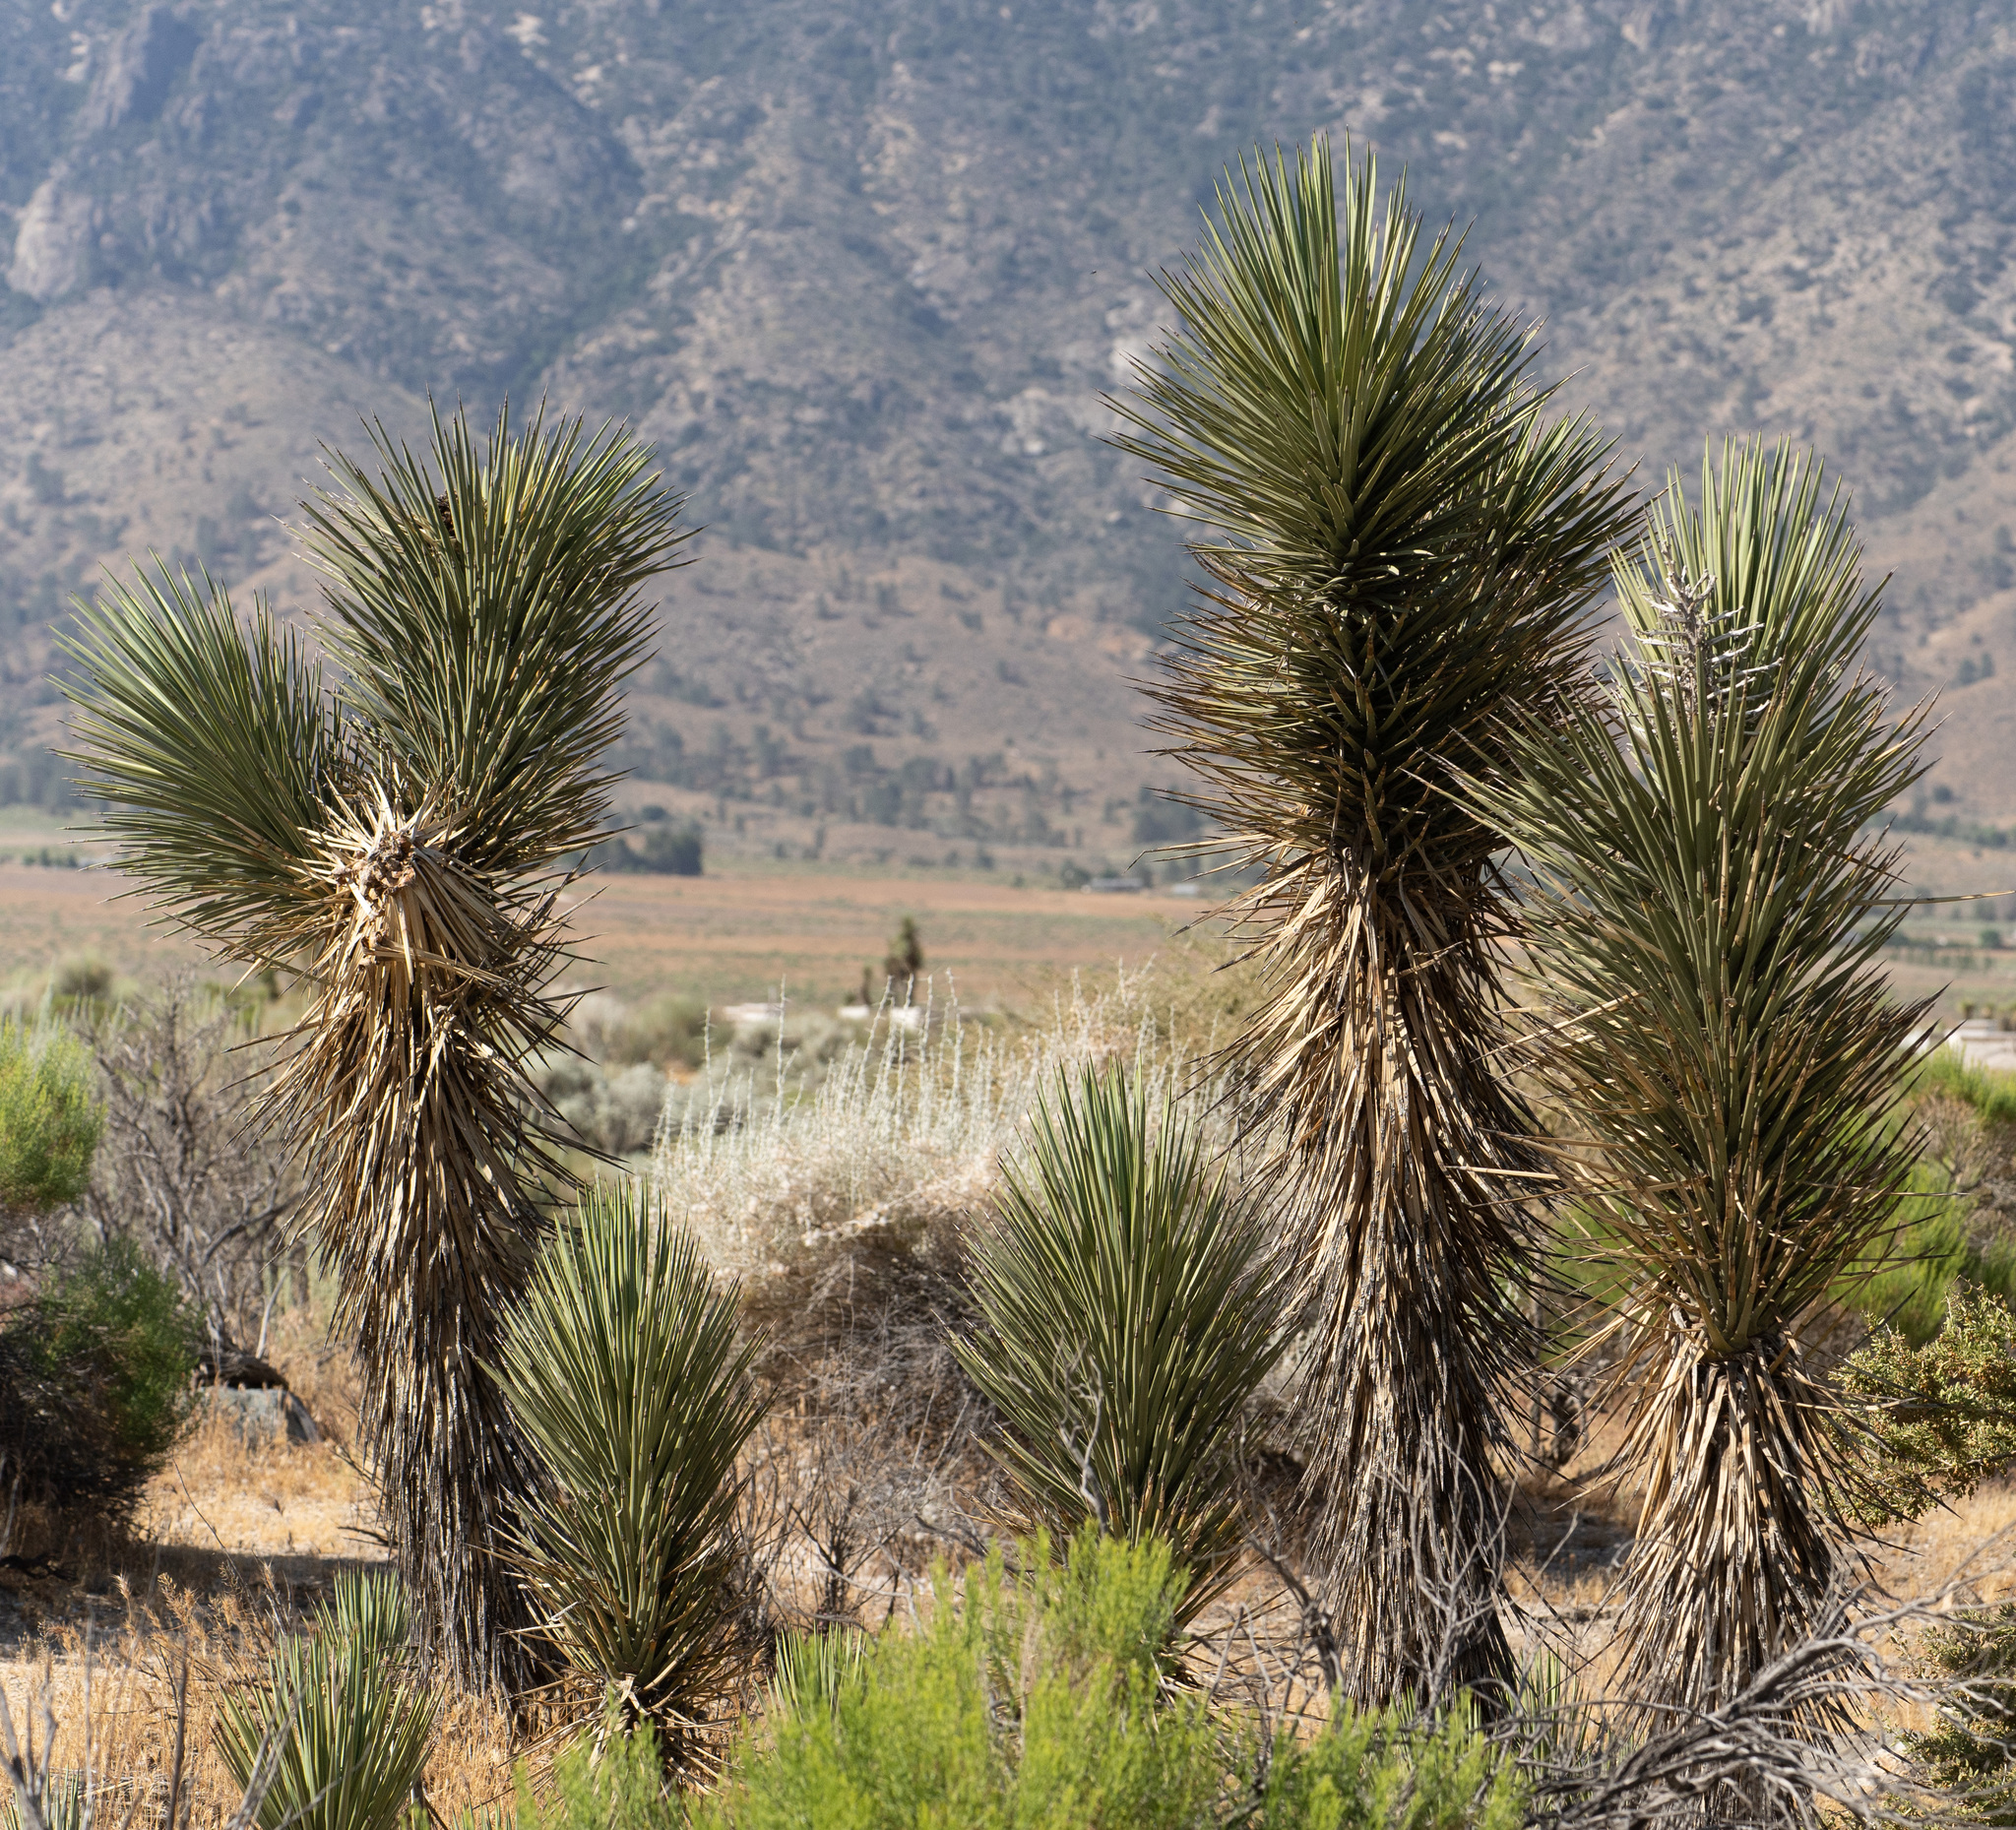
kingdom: Plantae
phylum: Tracheophyta
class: Liliopsida
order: Asparagales
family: Asparagaceae
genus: Yucca
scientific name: Yucca brevifolia
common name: Joshua tree
